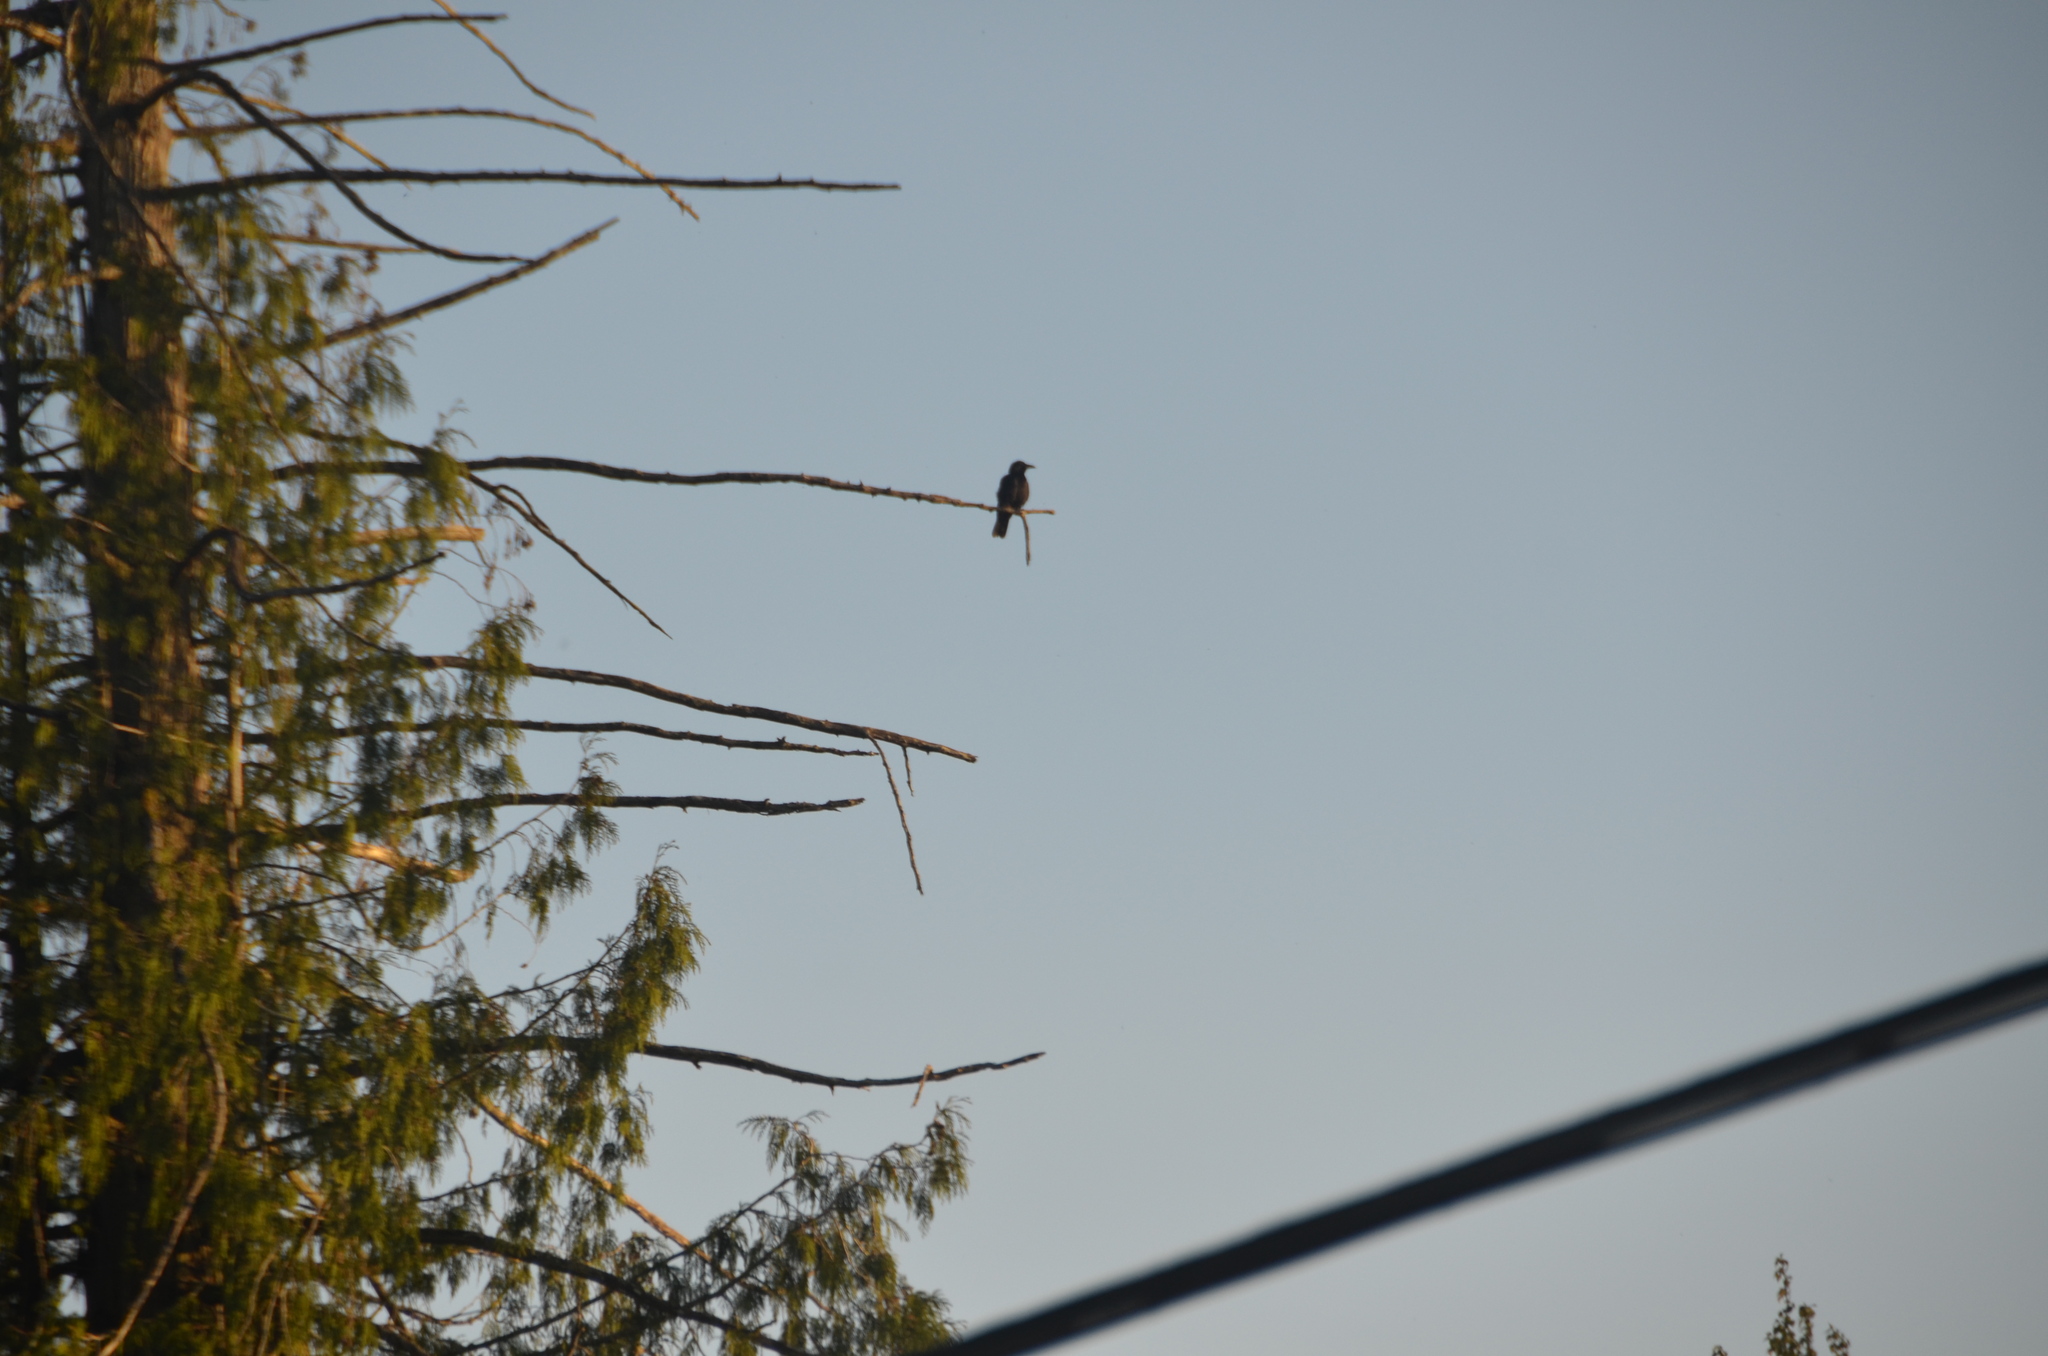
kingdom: Animalia
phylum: Chordata
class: Aves
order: Passeriformes
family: Corvidae
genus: Corvus
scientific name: Corvus brachyrhynchos
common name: American crow
